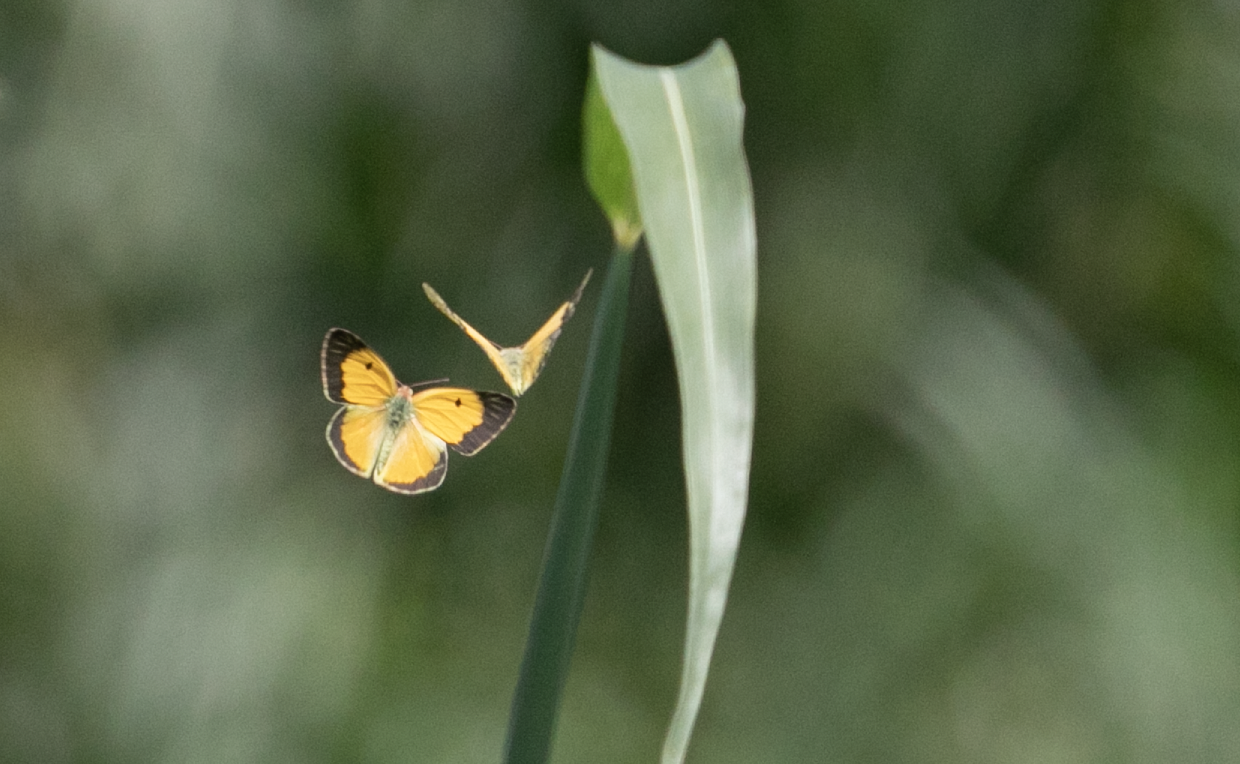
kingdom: Animalia
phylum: Arthropoda
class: Insecta
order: Lepidoptera
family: Pieridae
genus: Colias
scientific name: Colias croceus
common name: Clouded yellow
